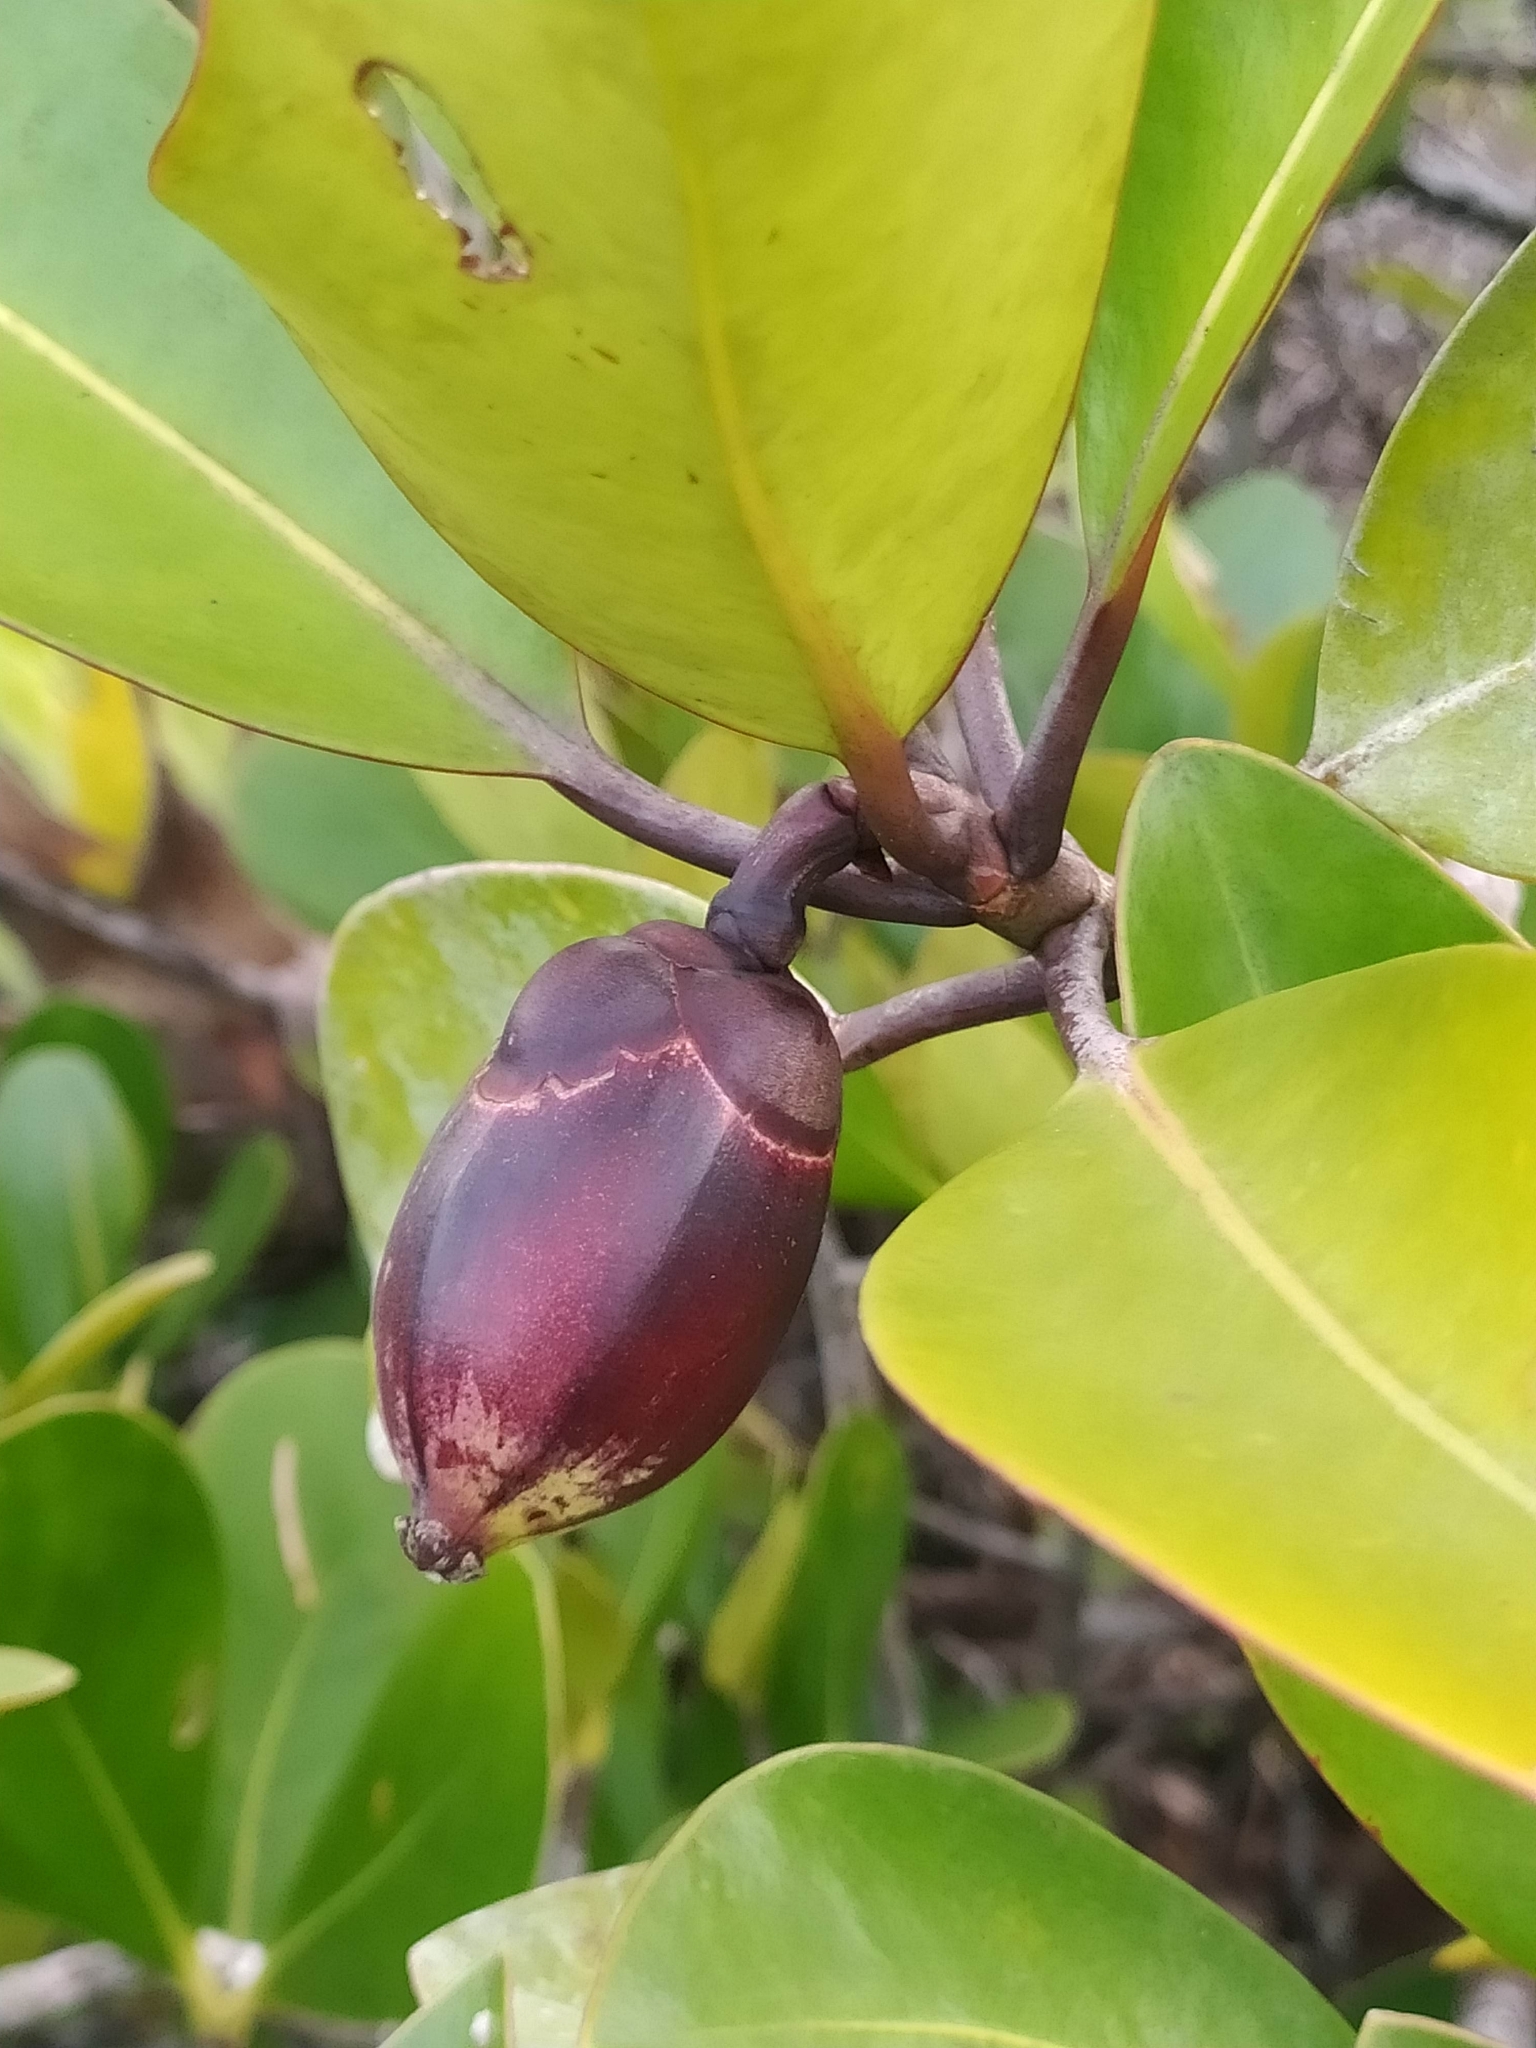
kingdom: Plantae
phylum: Tracheophyta
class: Magnoliopsida
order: Malpighiales
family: Clusiaceae
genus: Clusia
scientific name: Clusia nemorosa
